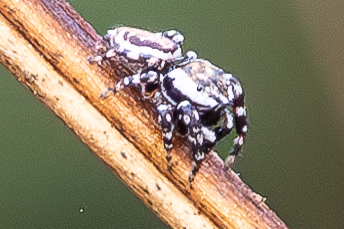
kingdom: Animalia
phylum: Arthropoda
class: Arachnida
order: Araneae
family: Salticidae
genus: Pelegrina
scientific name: Pelegrina galathea
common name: Jumping spiders
